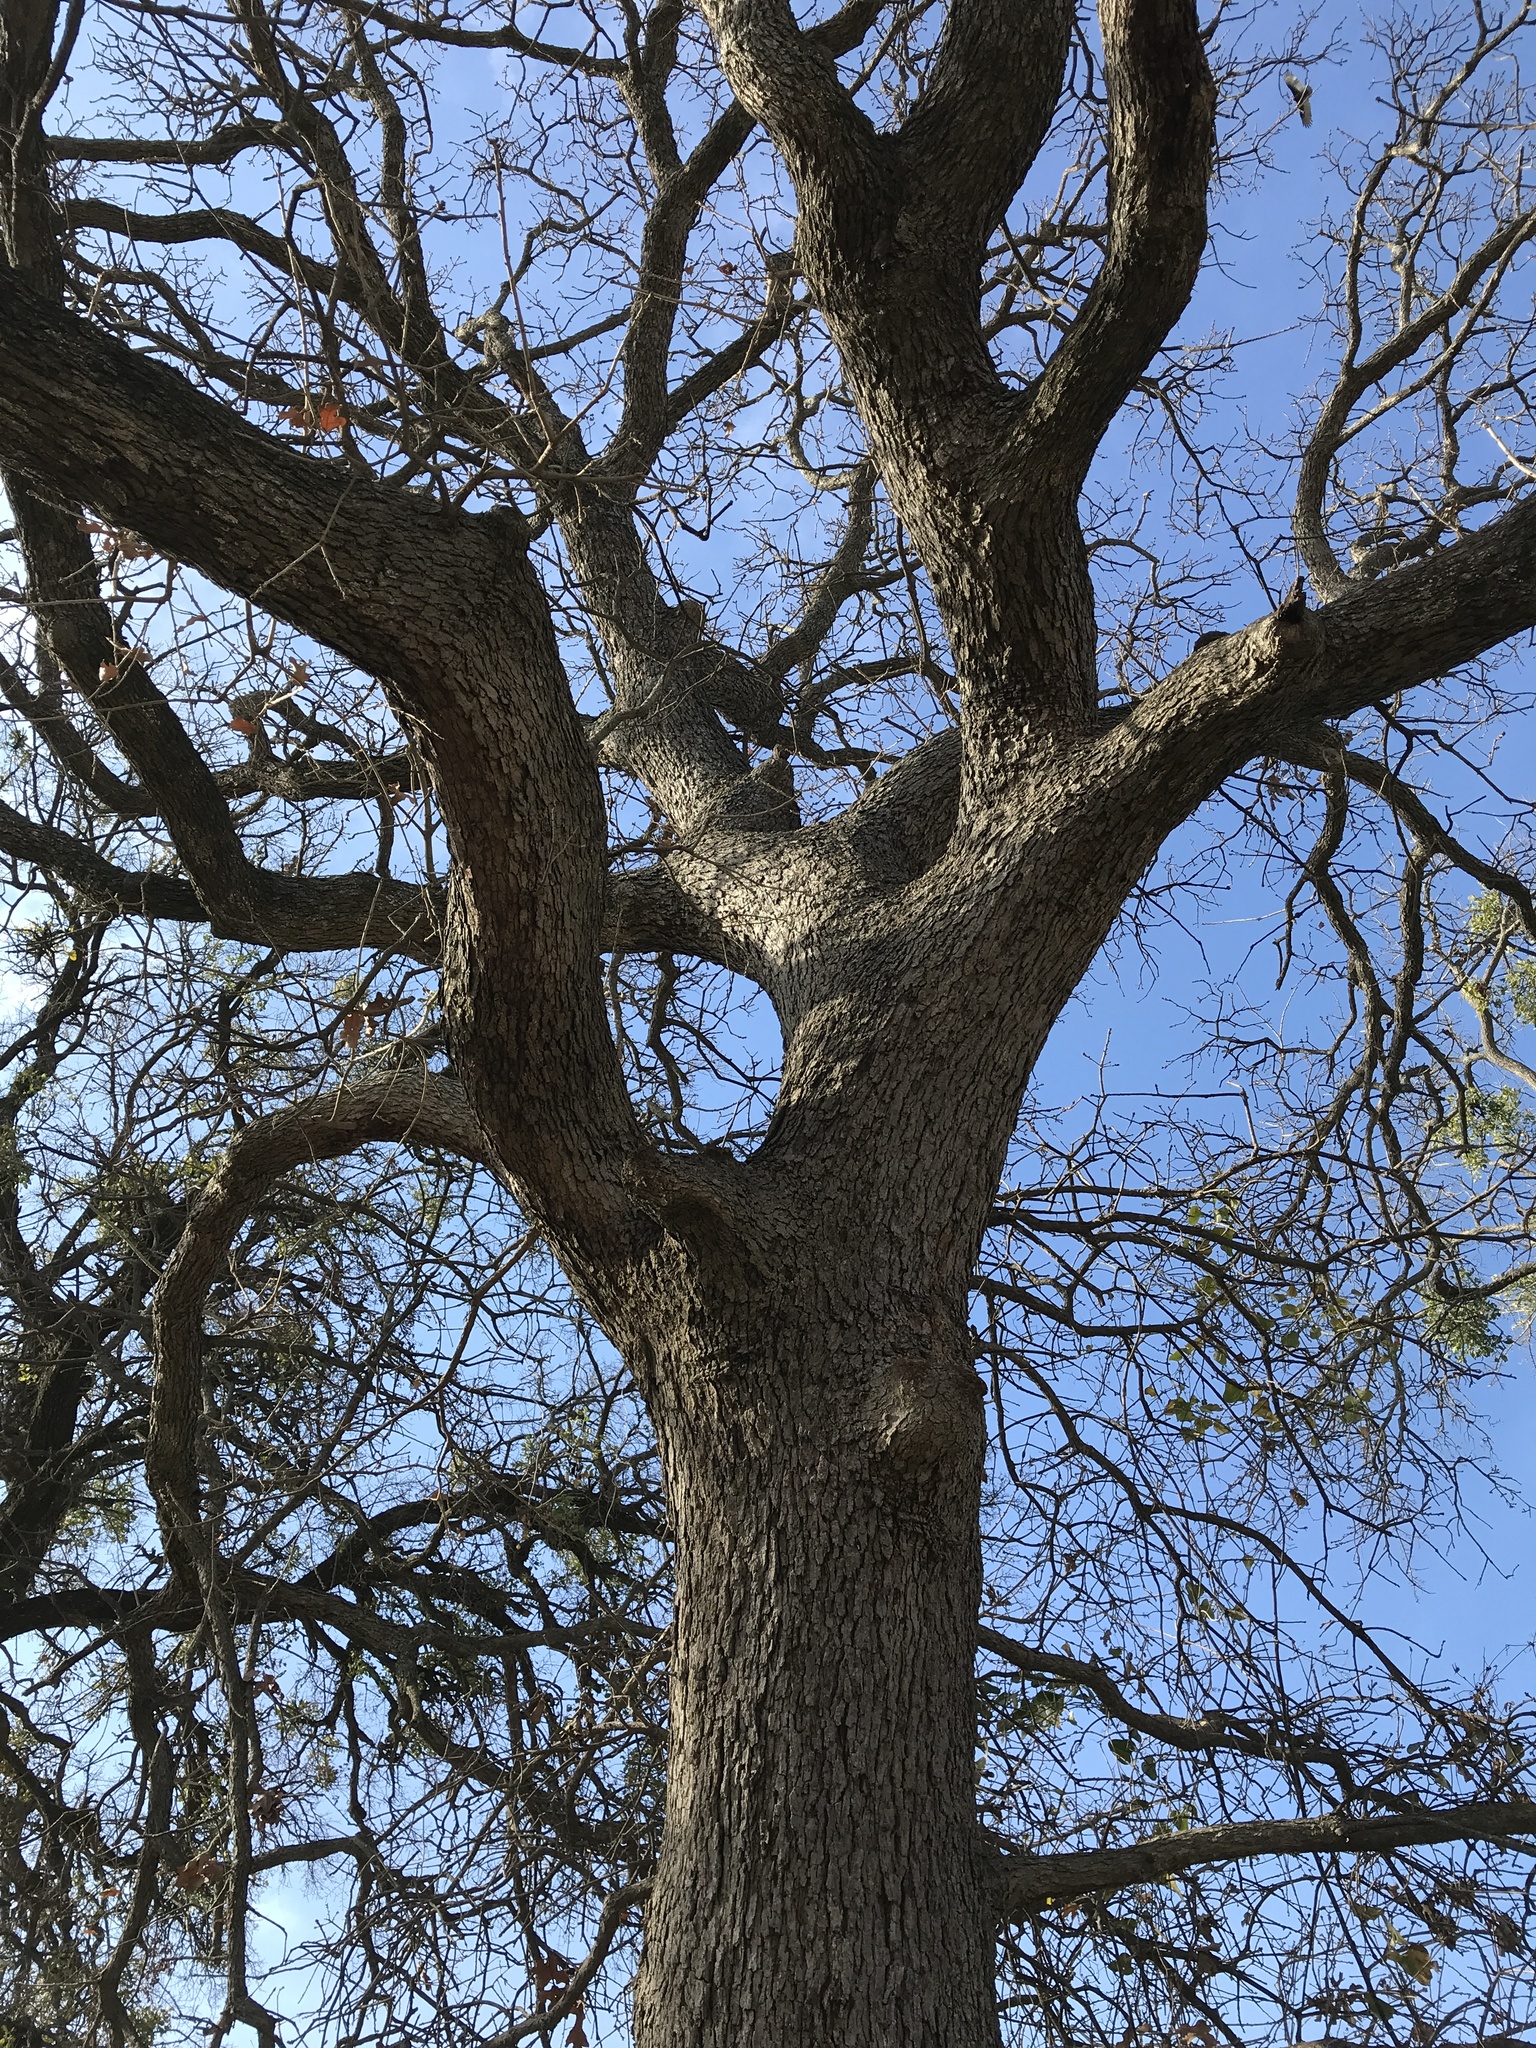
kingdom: Plantae
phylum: Tracheophyta
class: Magnoliopsida
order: Fagales
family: Fagaceae
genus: Quercus
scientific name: Quercus stellata
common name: Post oak
